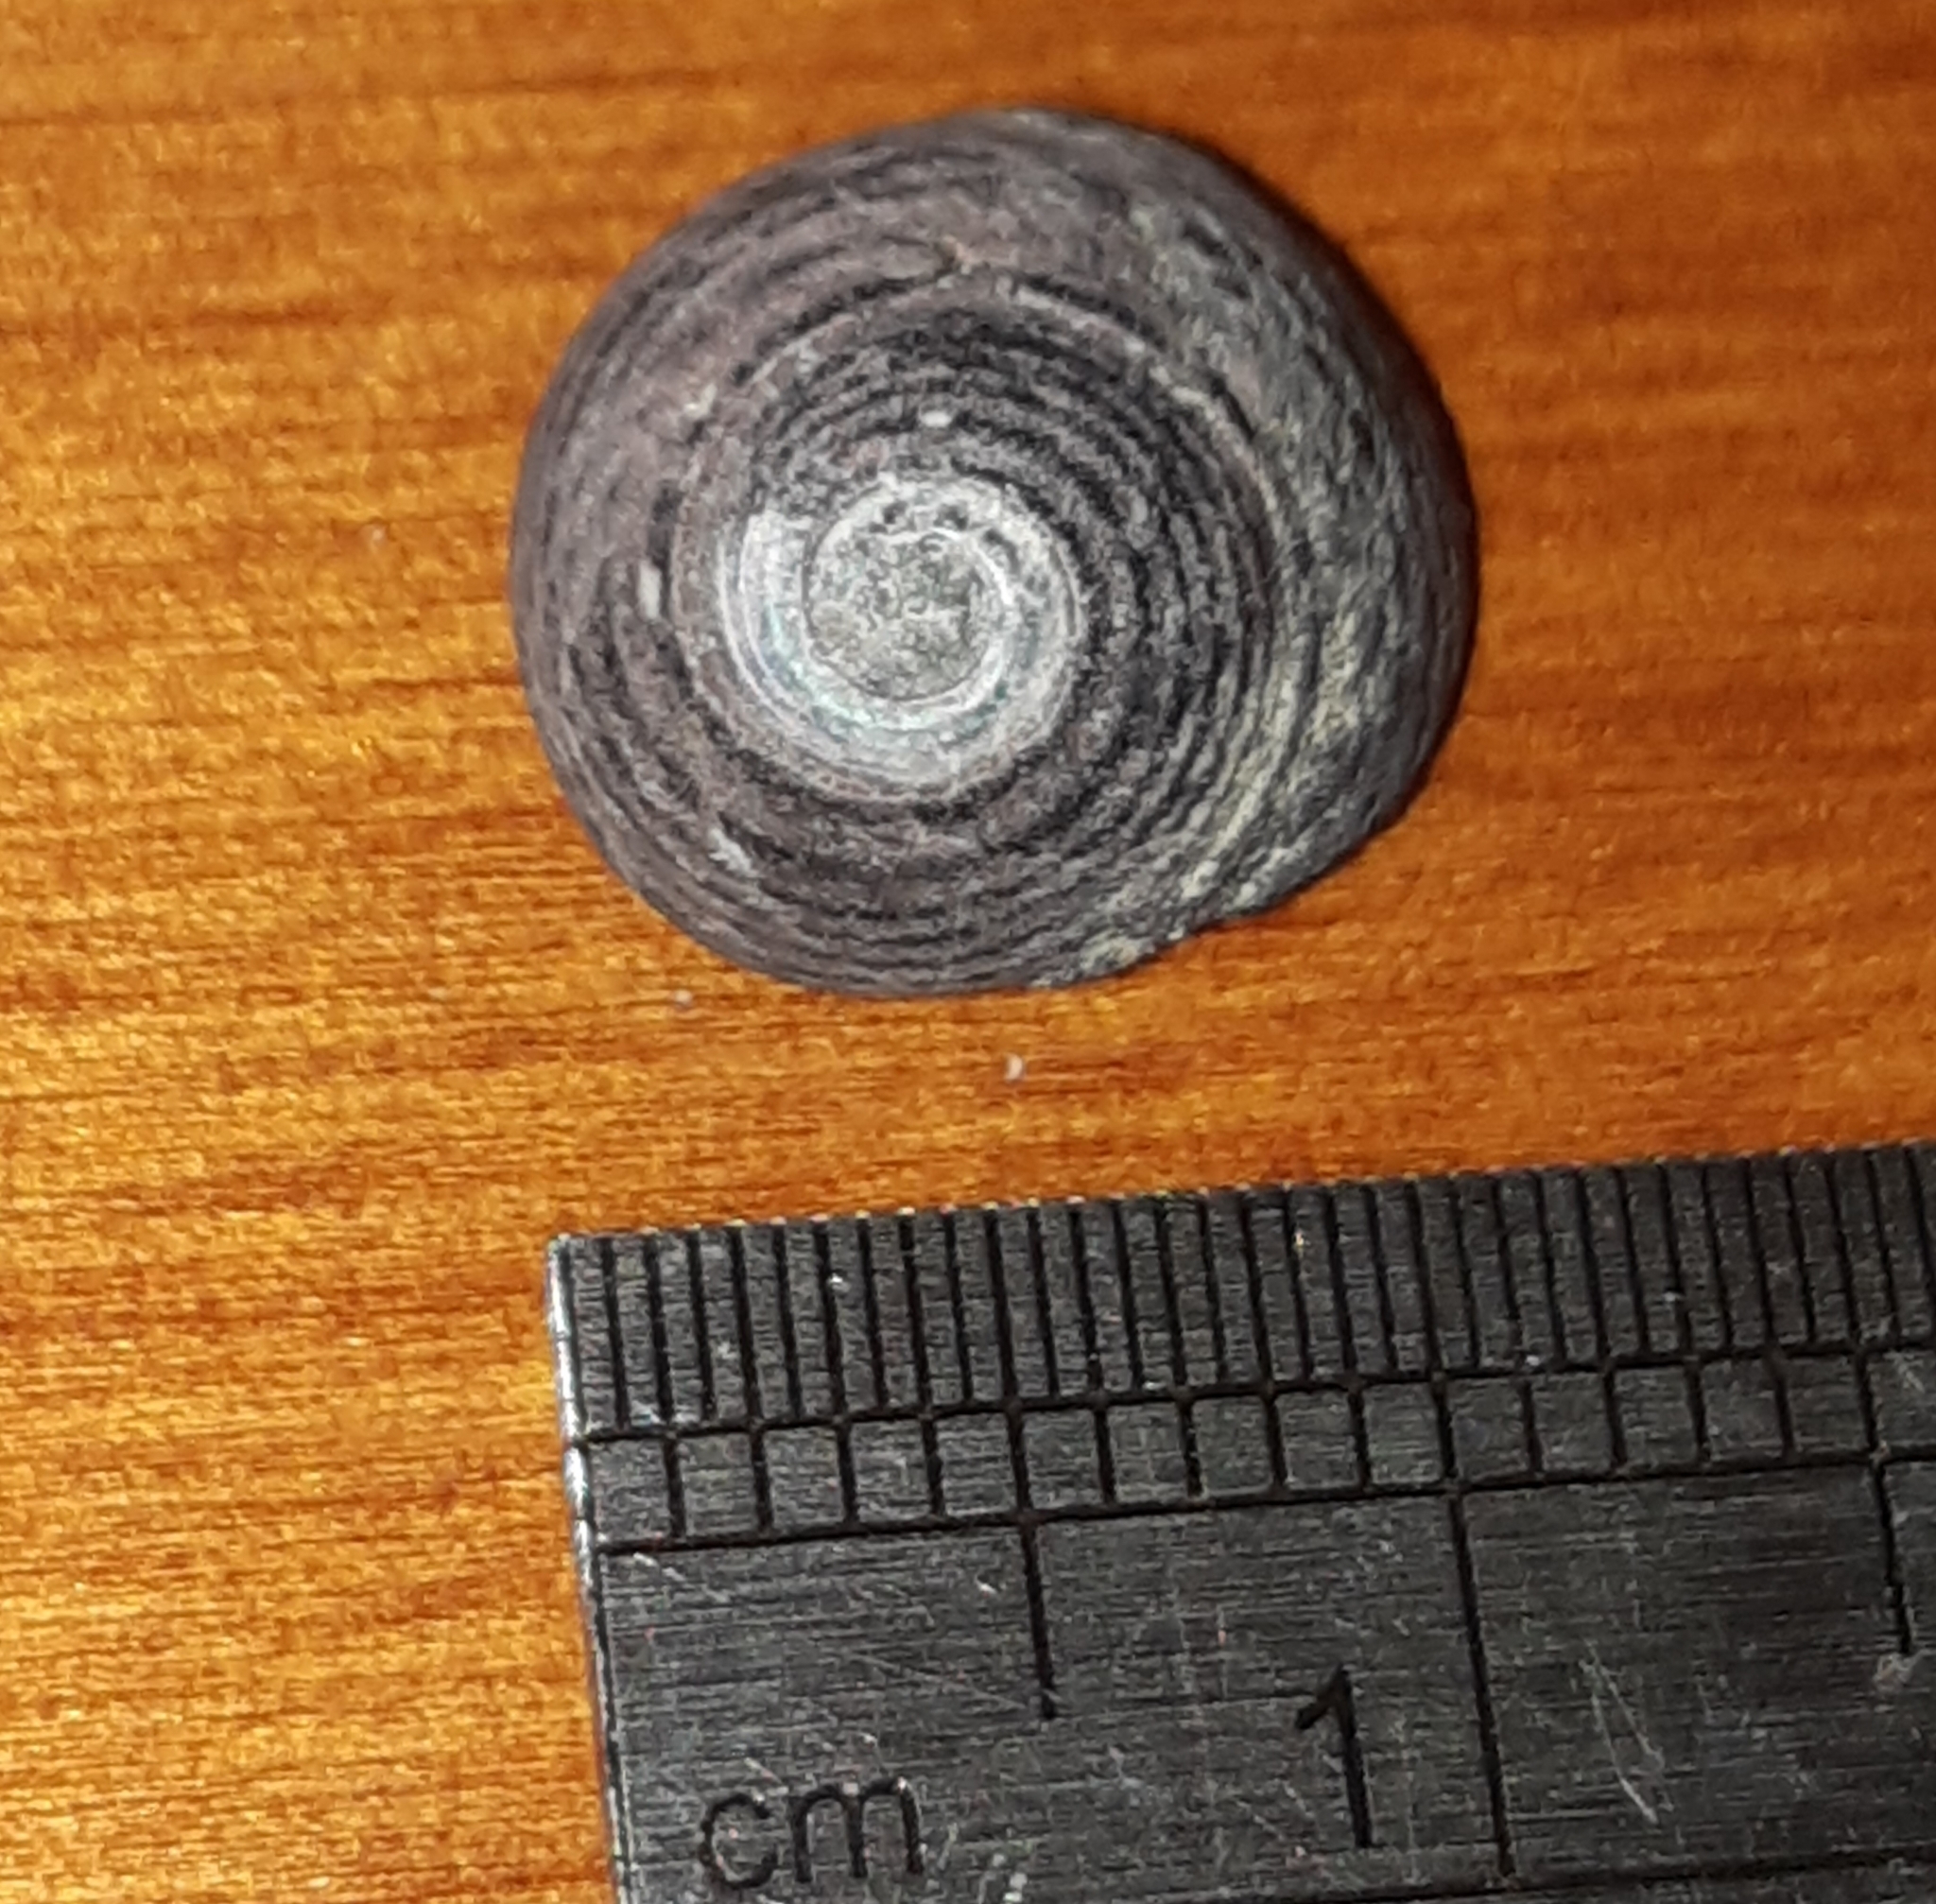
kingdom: Animalia
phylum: Mollusca
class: Gastropoda
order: Trochida
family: Trochidae
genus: Diloma
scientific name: Diloma zelandicum
